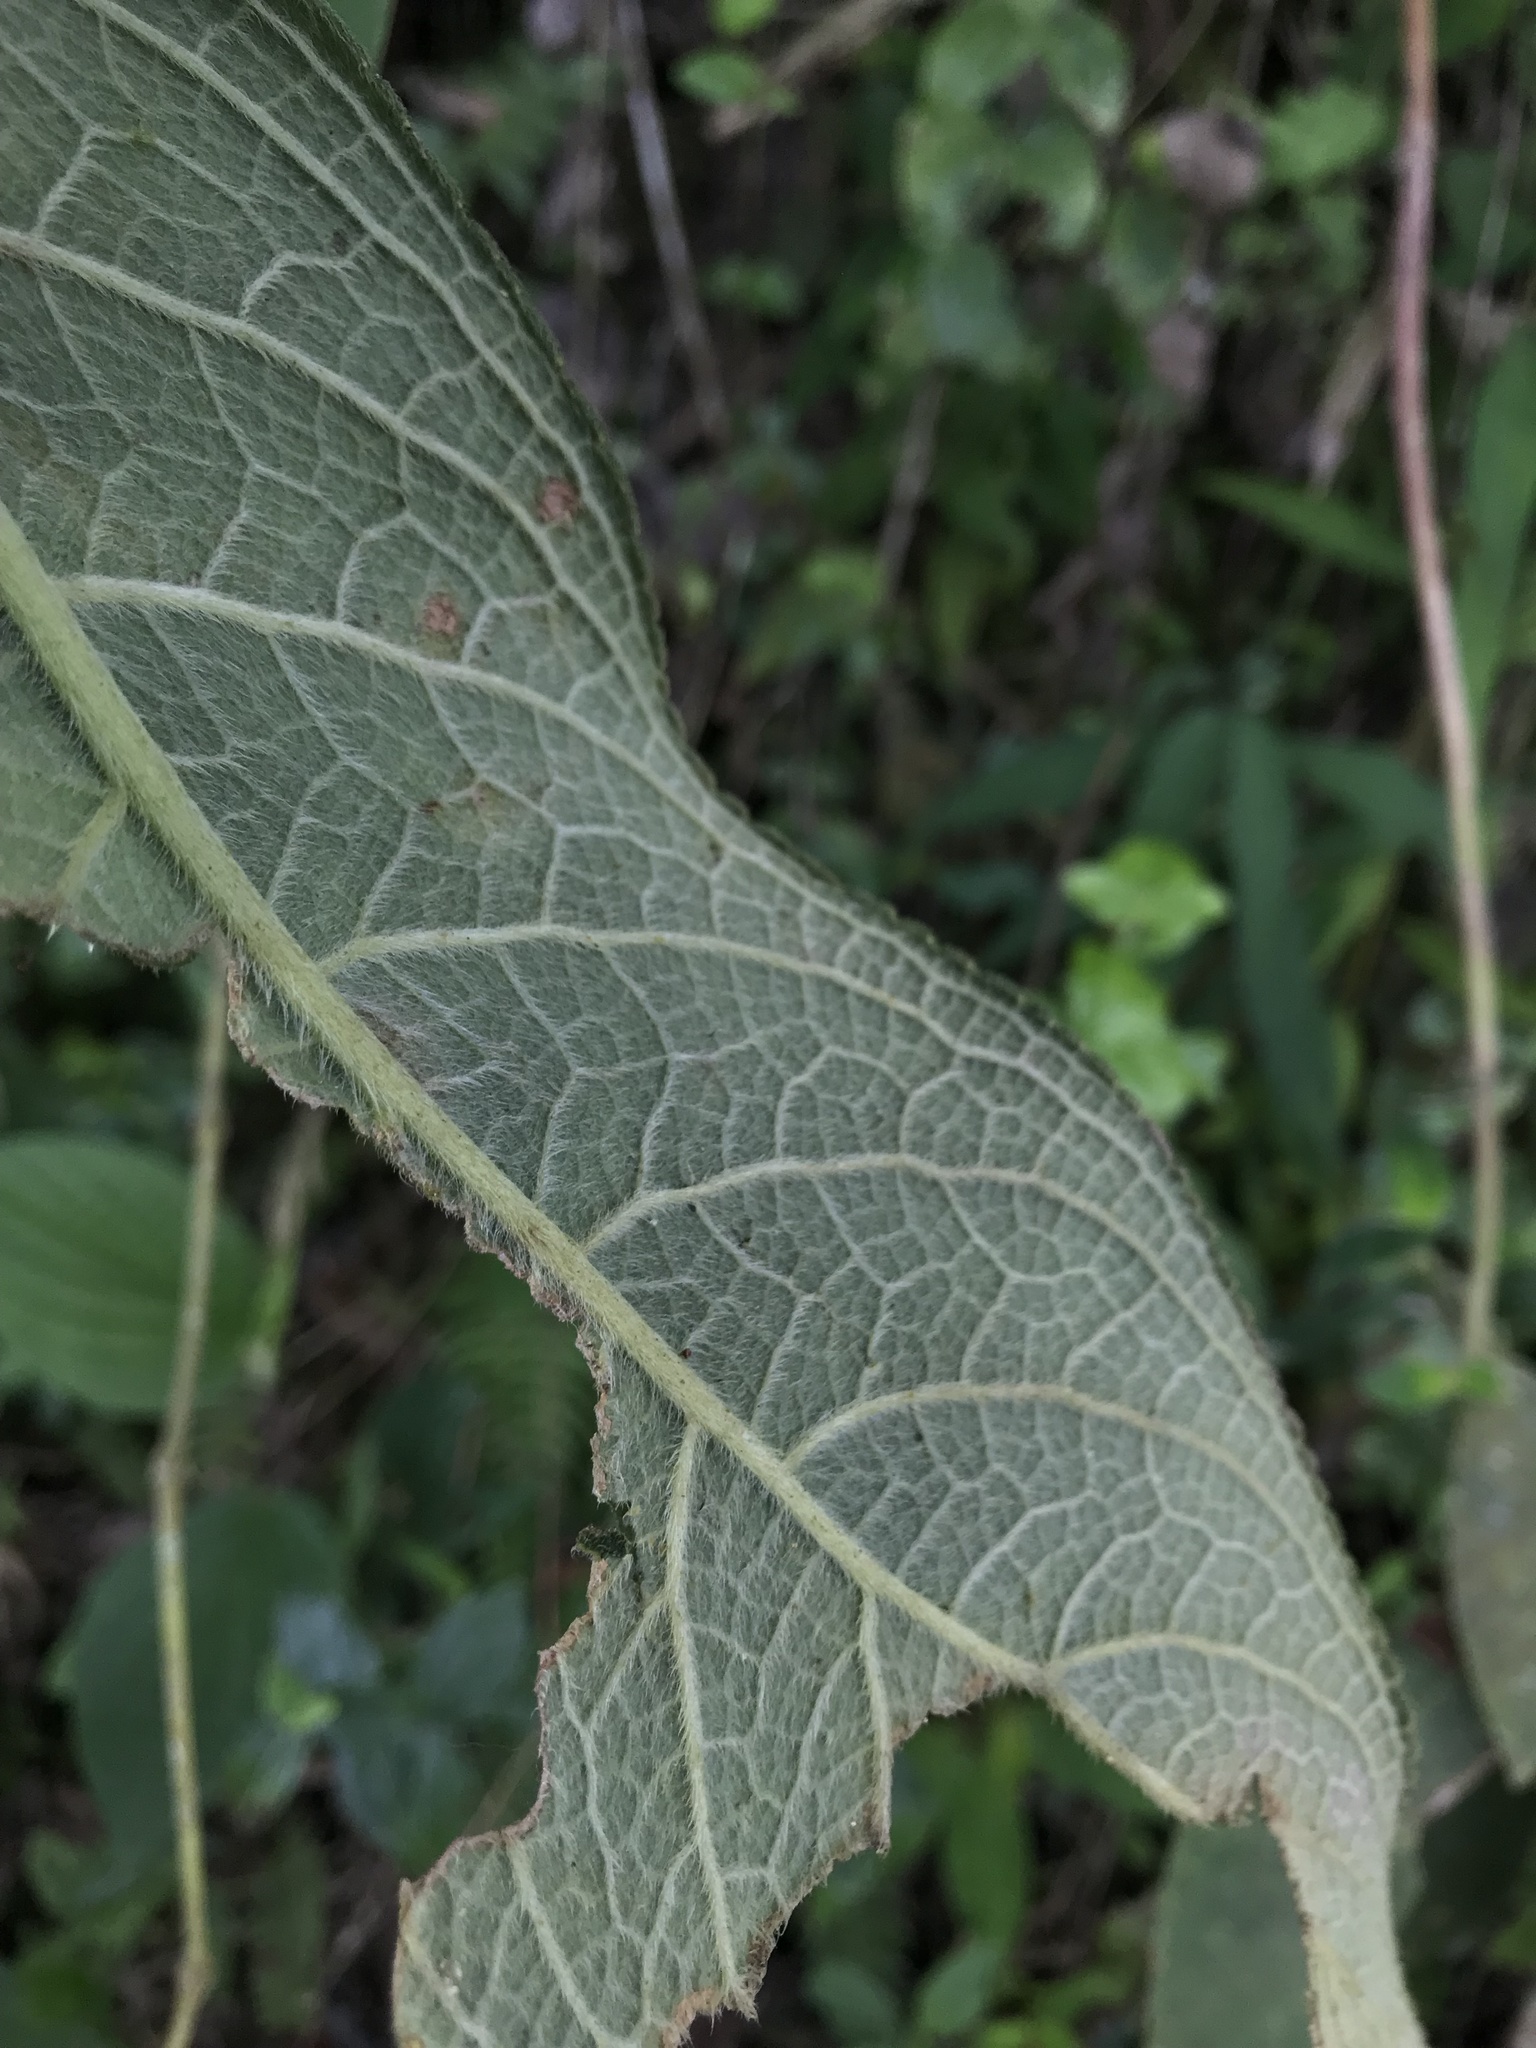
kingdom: Plantae
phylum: Tracheophyta
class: Magnoliopsida
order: Lamiales
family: Gesneriaceae
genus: Kohleria
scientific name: Kohleria spicata
